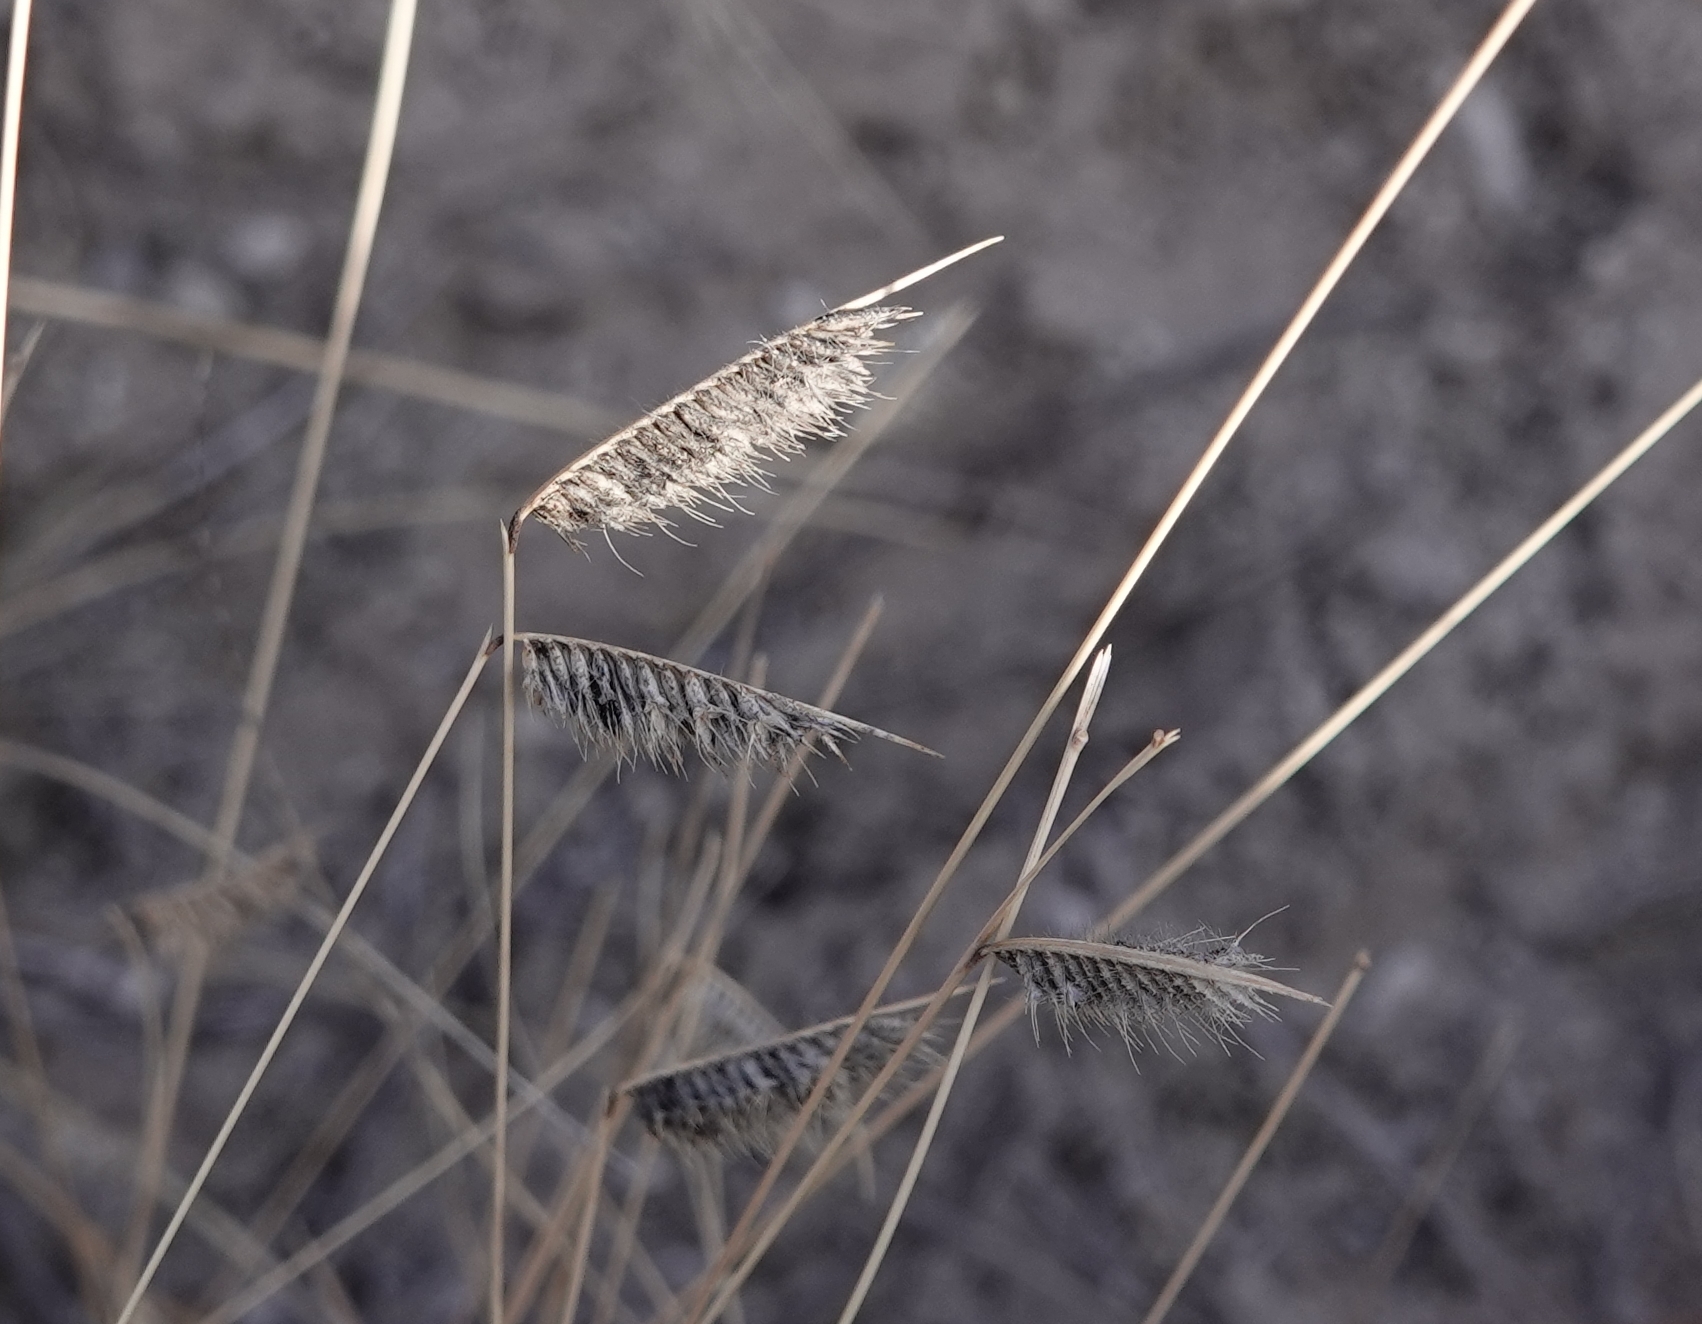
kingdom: Plantae
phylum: Tracheophyta
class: Liliopsida
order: Poales
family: Poaceae
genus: Bouteloua
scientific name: Bouteloua hirsuta
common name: Hairy grama
